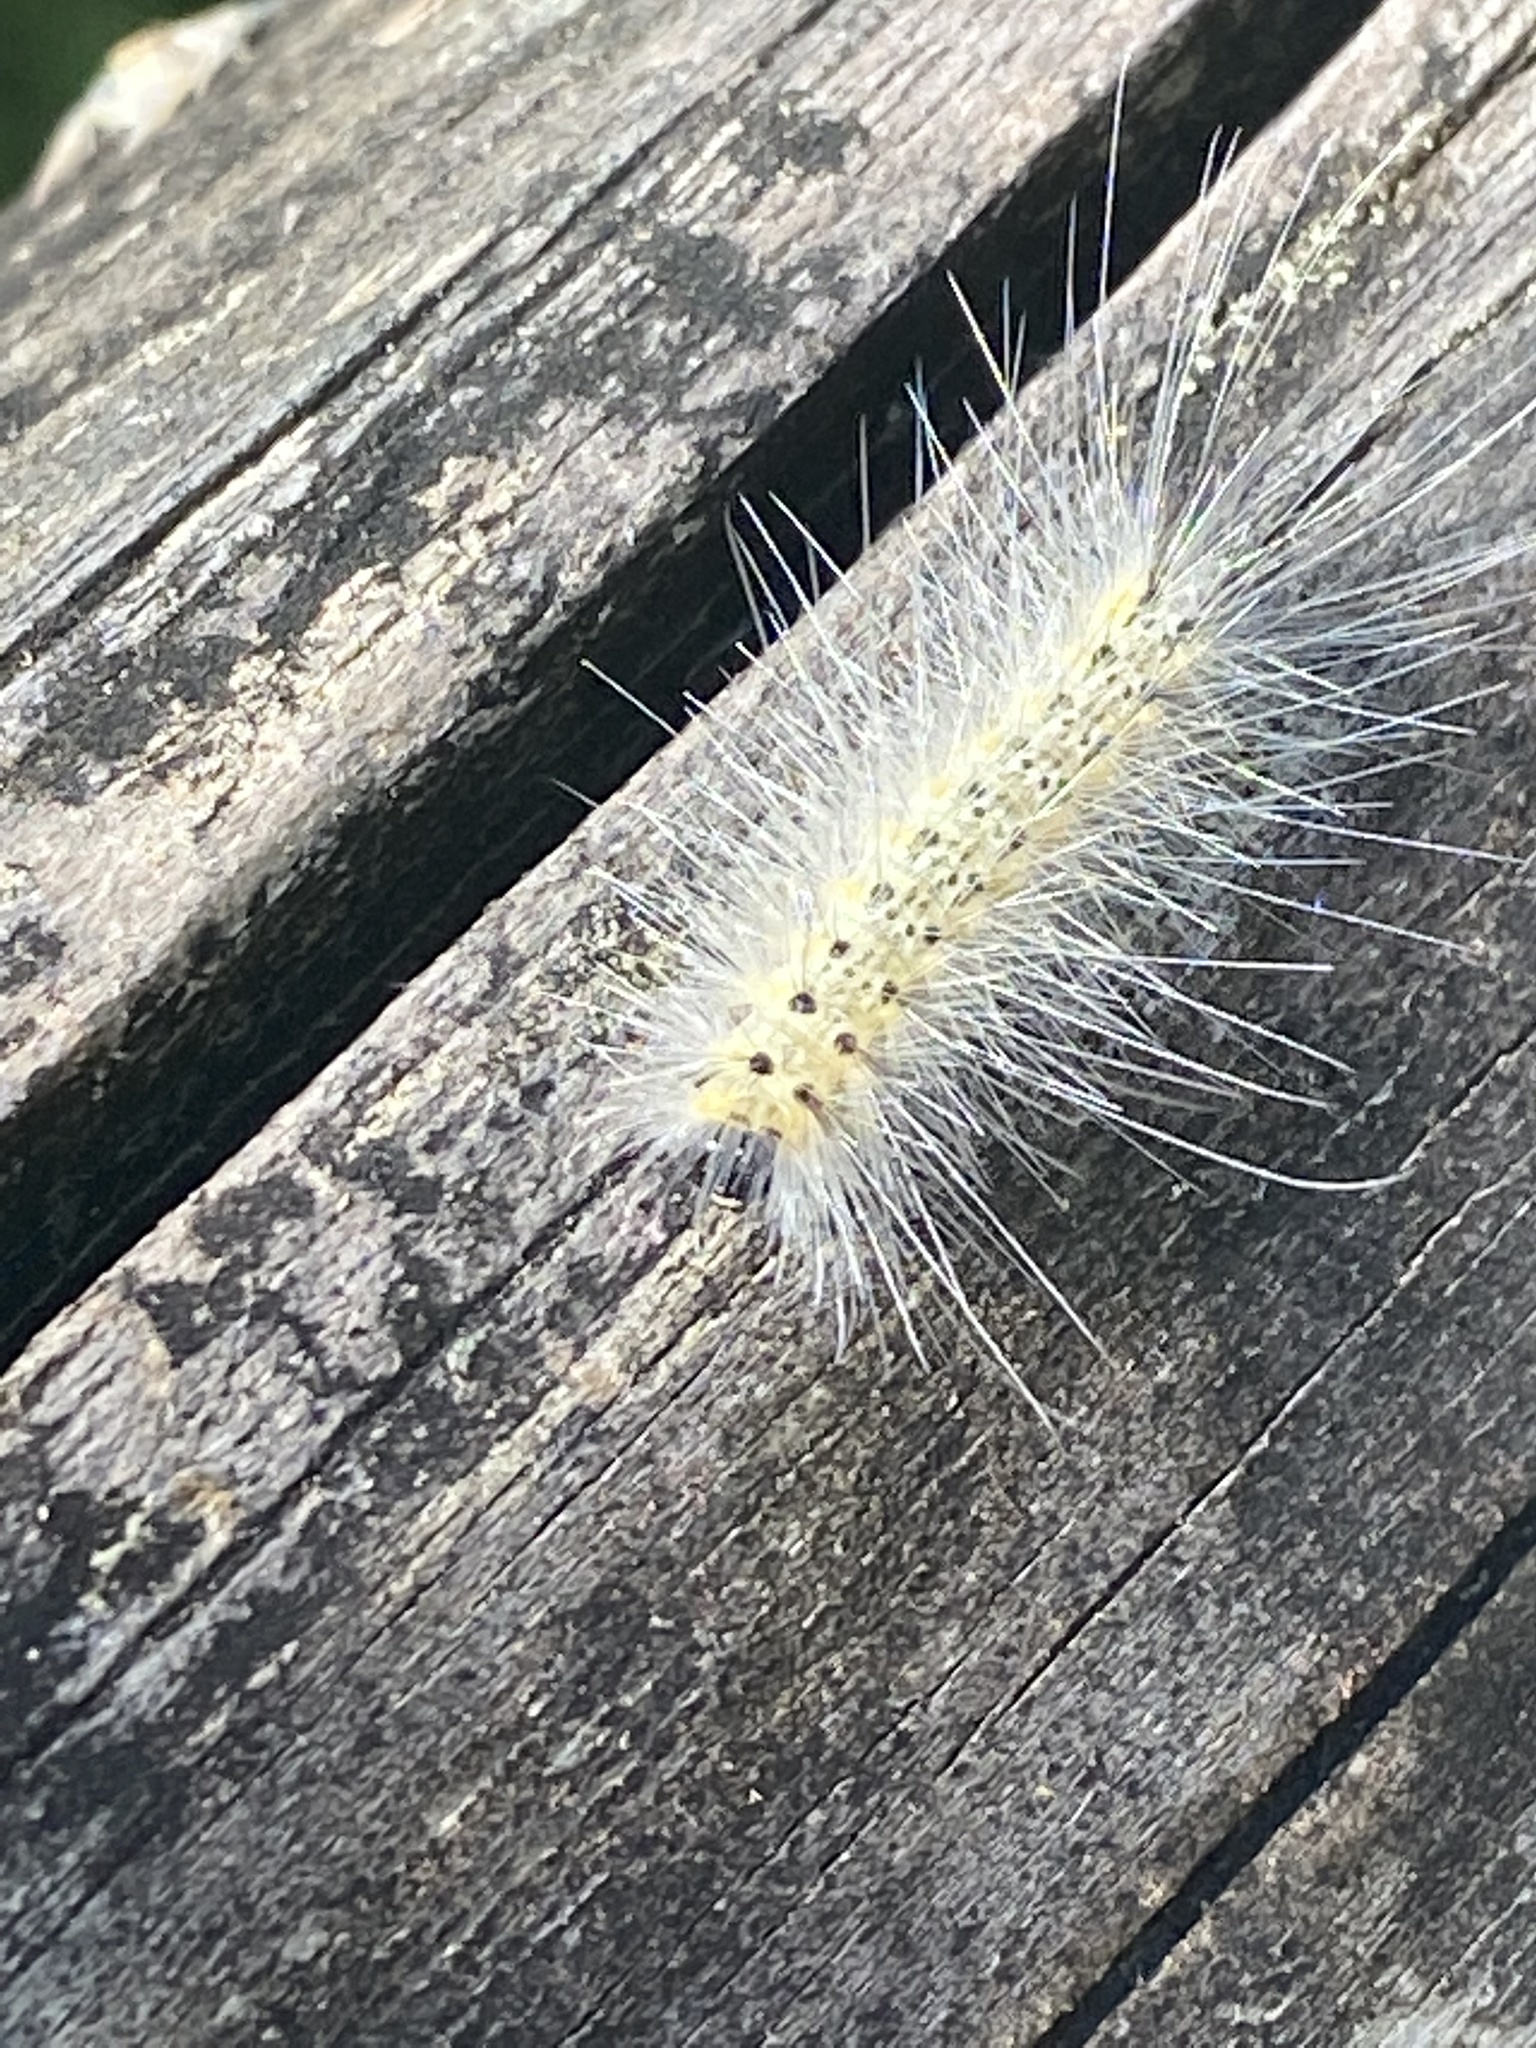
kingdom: Animalia
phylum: Arthropoda
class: Insecta
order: Lepidoptera
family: Erebidae
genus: Hyphantria
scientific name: Hyphantria cunea
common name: American white moth
